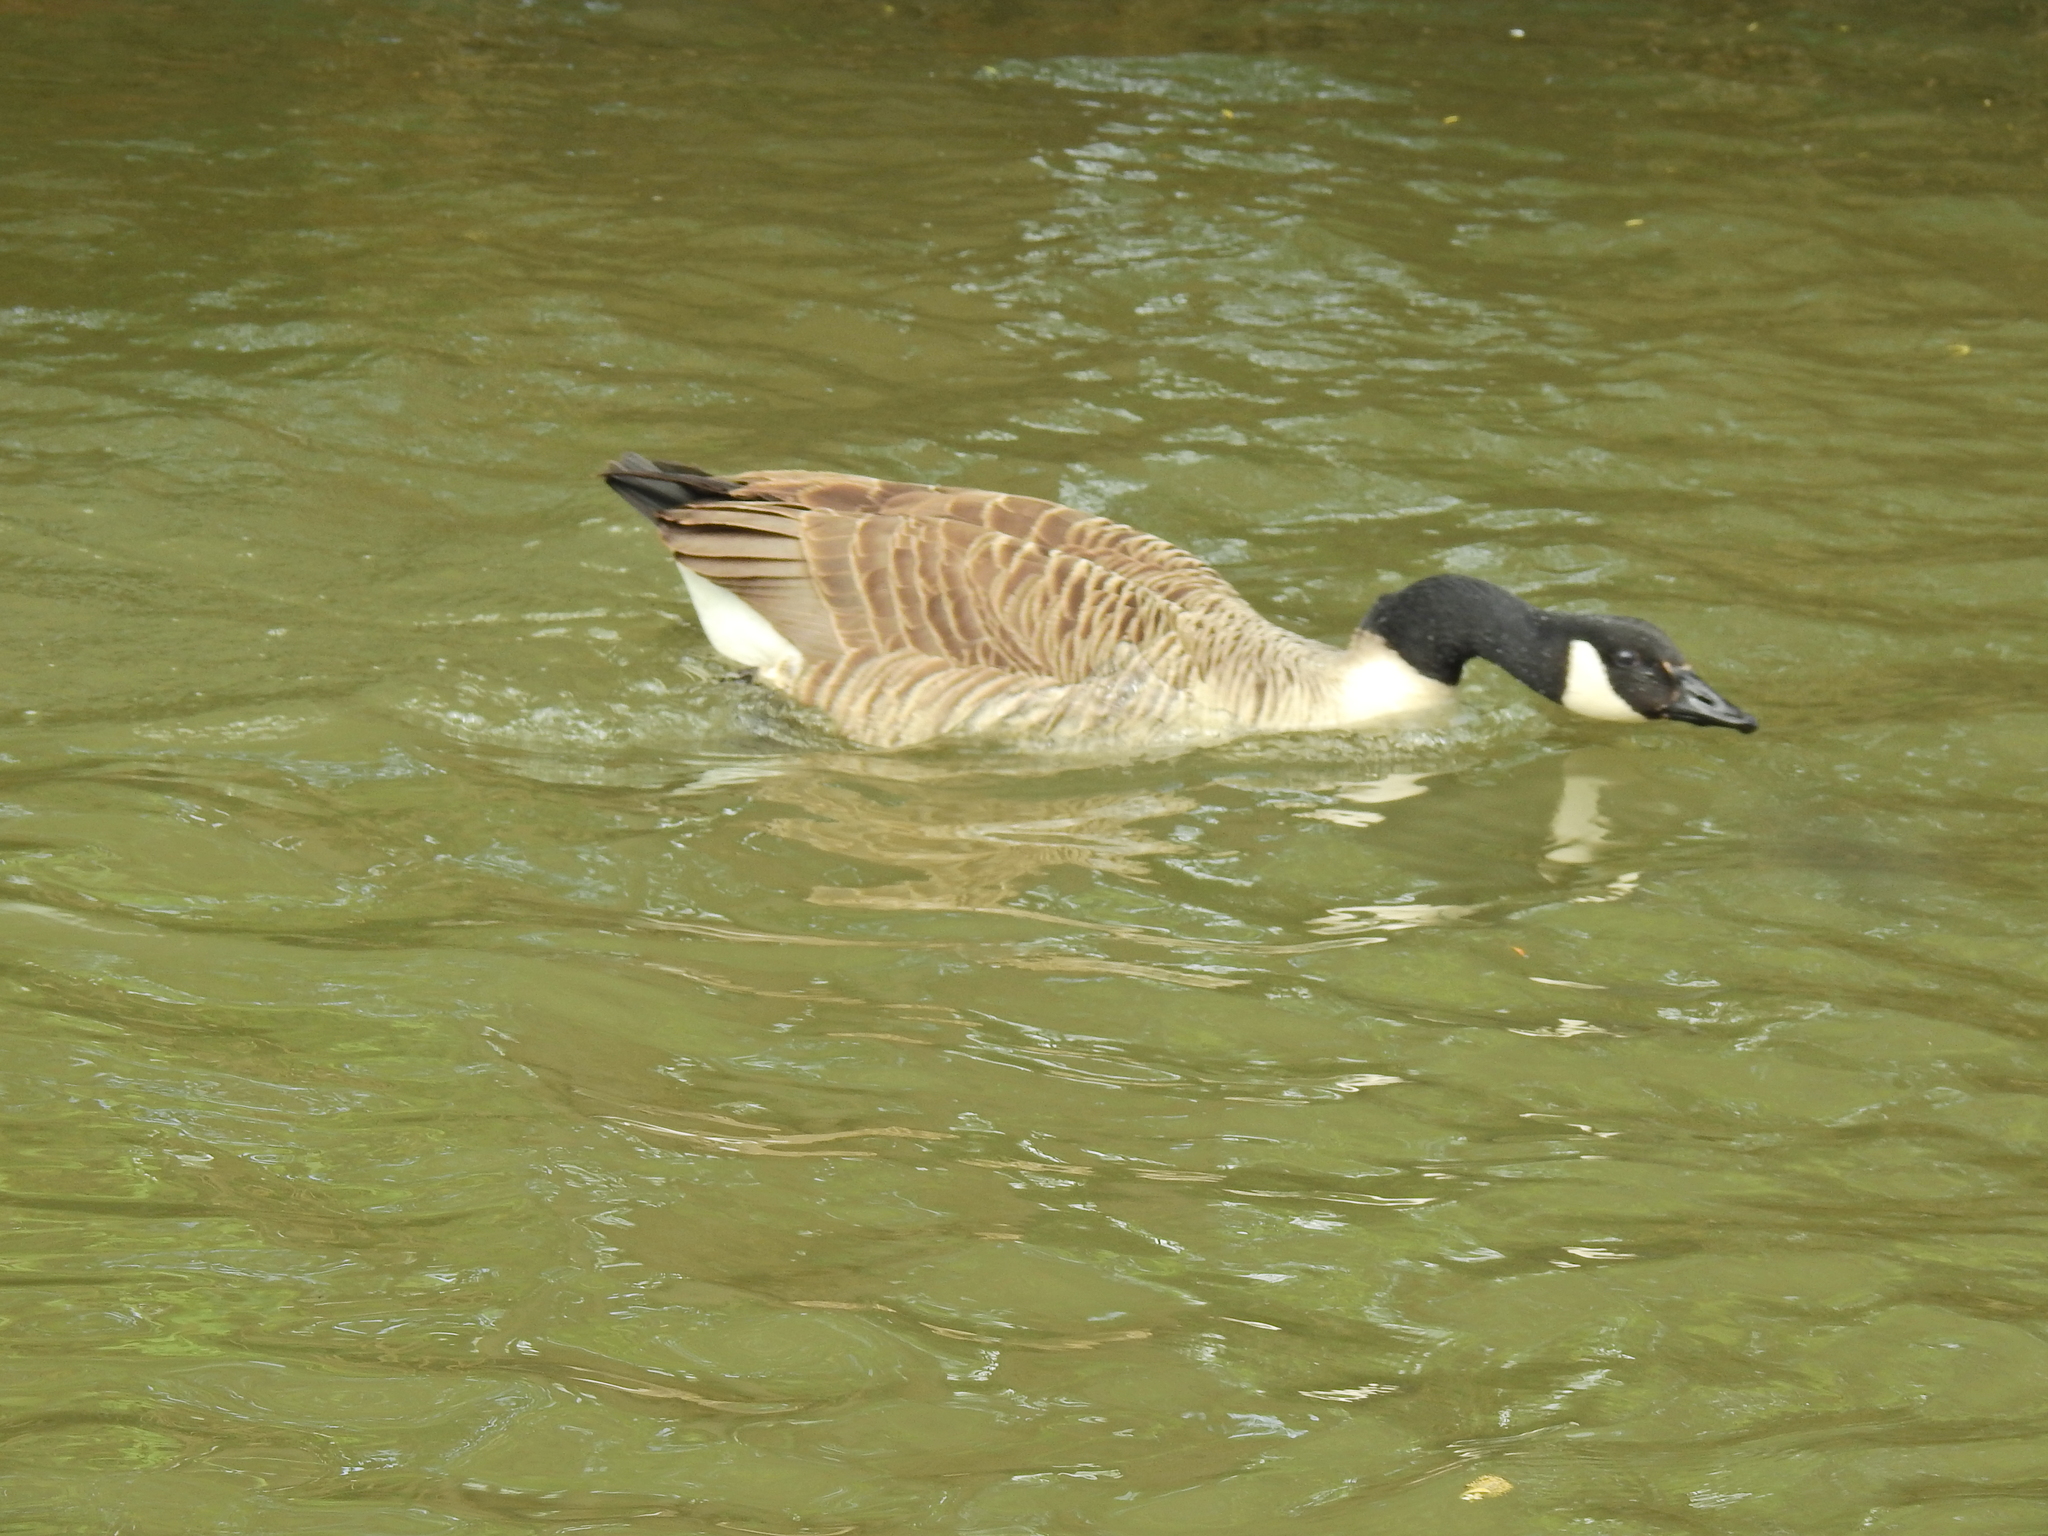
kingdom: Animalia
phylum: Chordata
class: Aves
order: Anseriformes
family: Anatidae
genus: Branta
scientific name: Branta canadensis
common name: Canada goose
